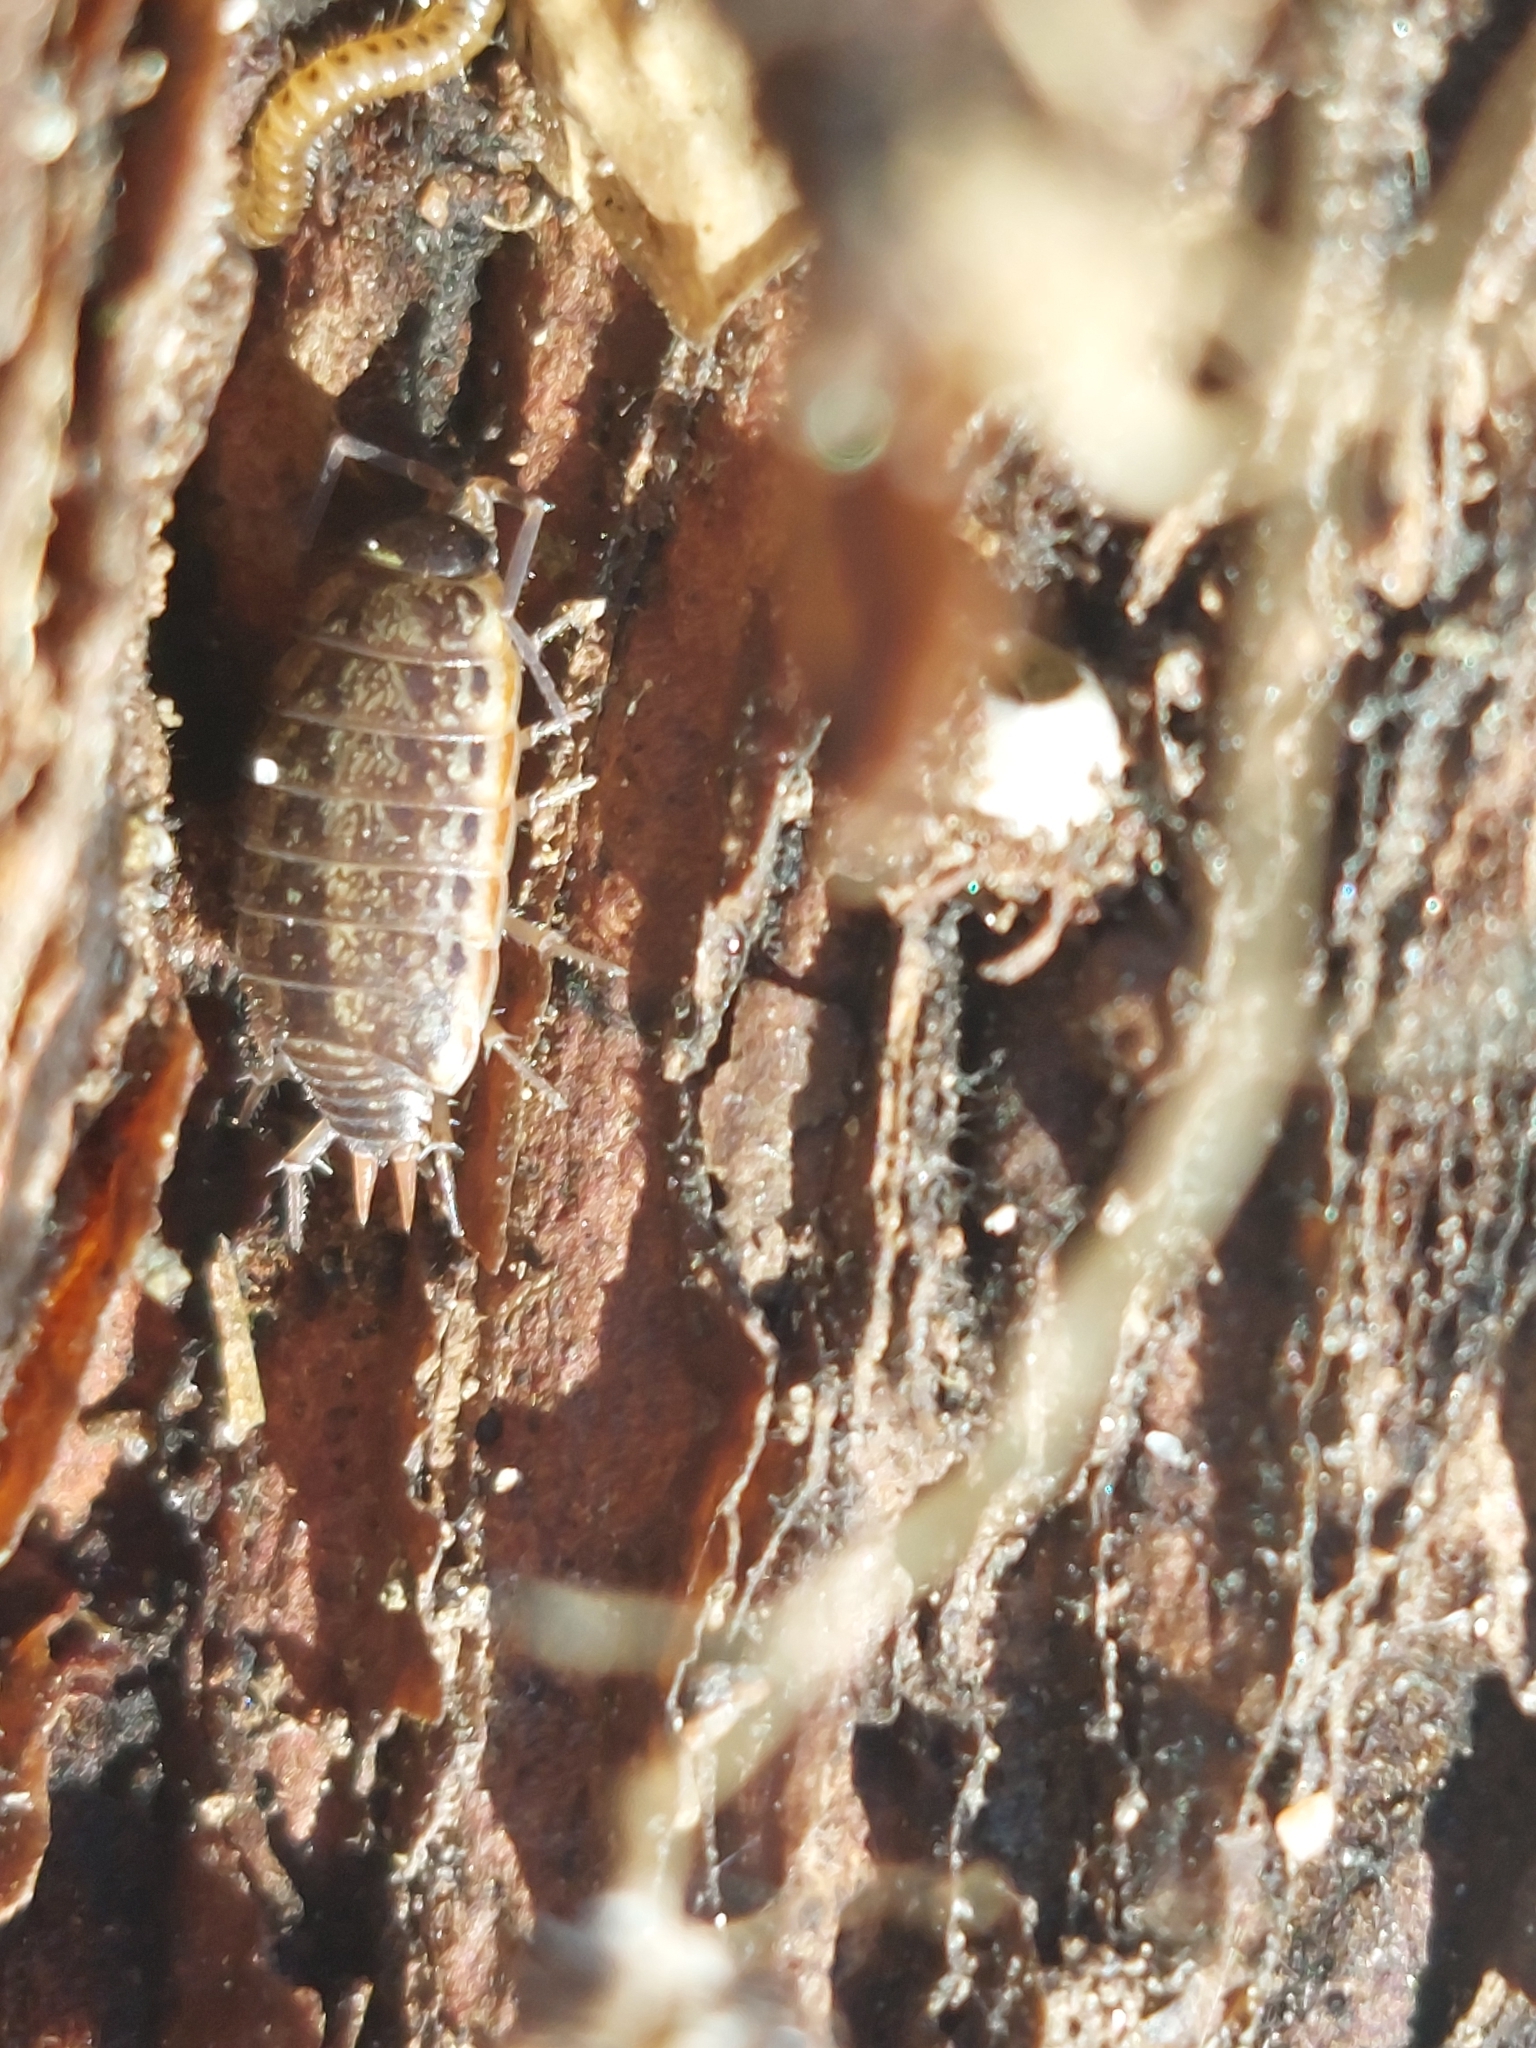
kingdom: Animalia
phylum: Arthropoda
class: Malacostraca
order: Isopoda
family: Philosciidae
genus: Philoscia
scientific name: Philoscia muscorum
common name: Common striped woodlouse
